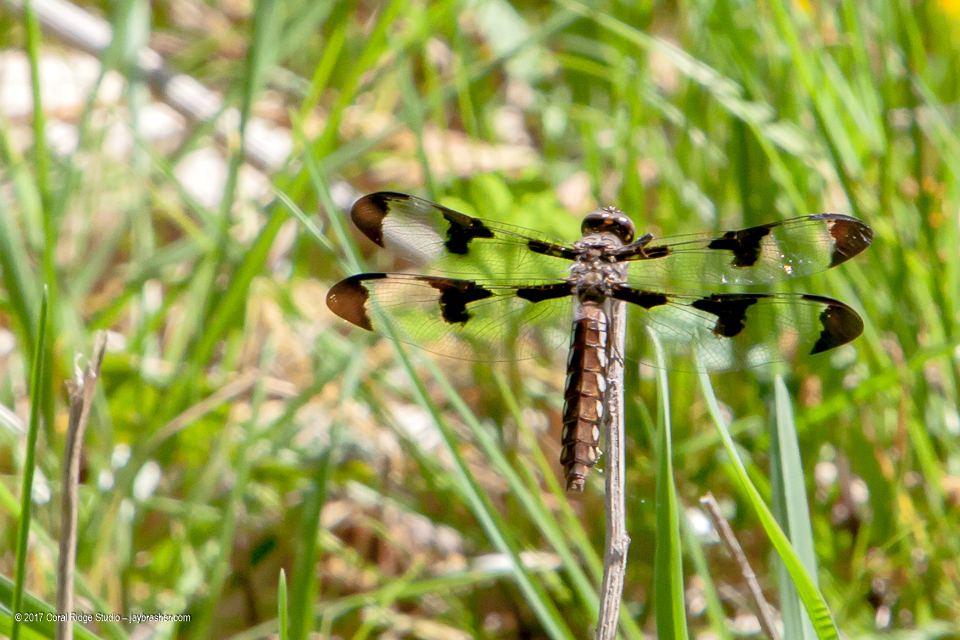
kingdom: Animalia
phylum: Arthropoda
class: Insecta
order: Odonata
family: Libellulidae
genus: Plathemis
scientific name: Plathemis lydia
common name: Common whitetail
